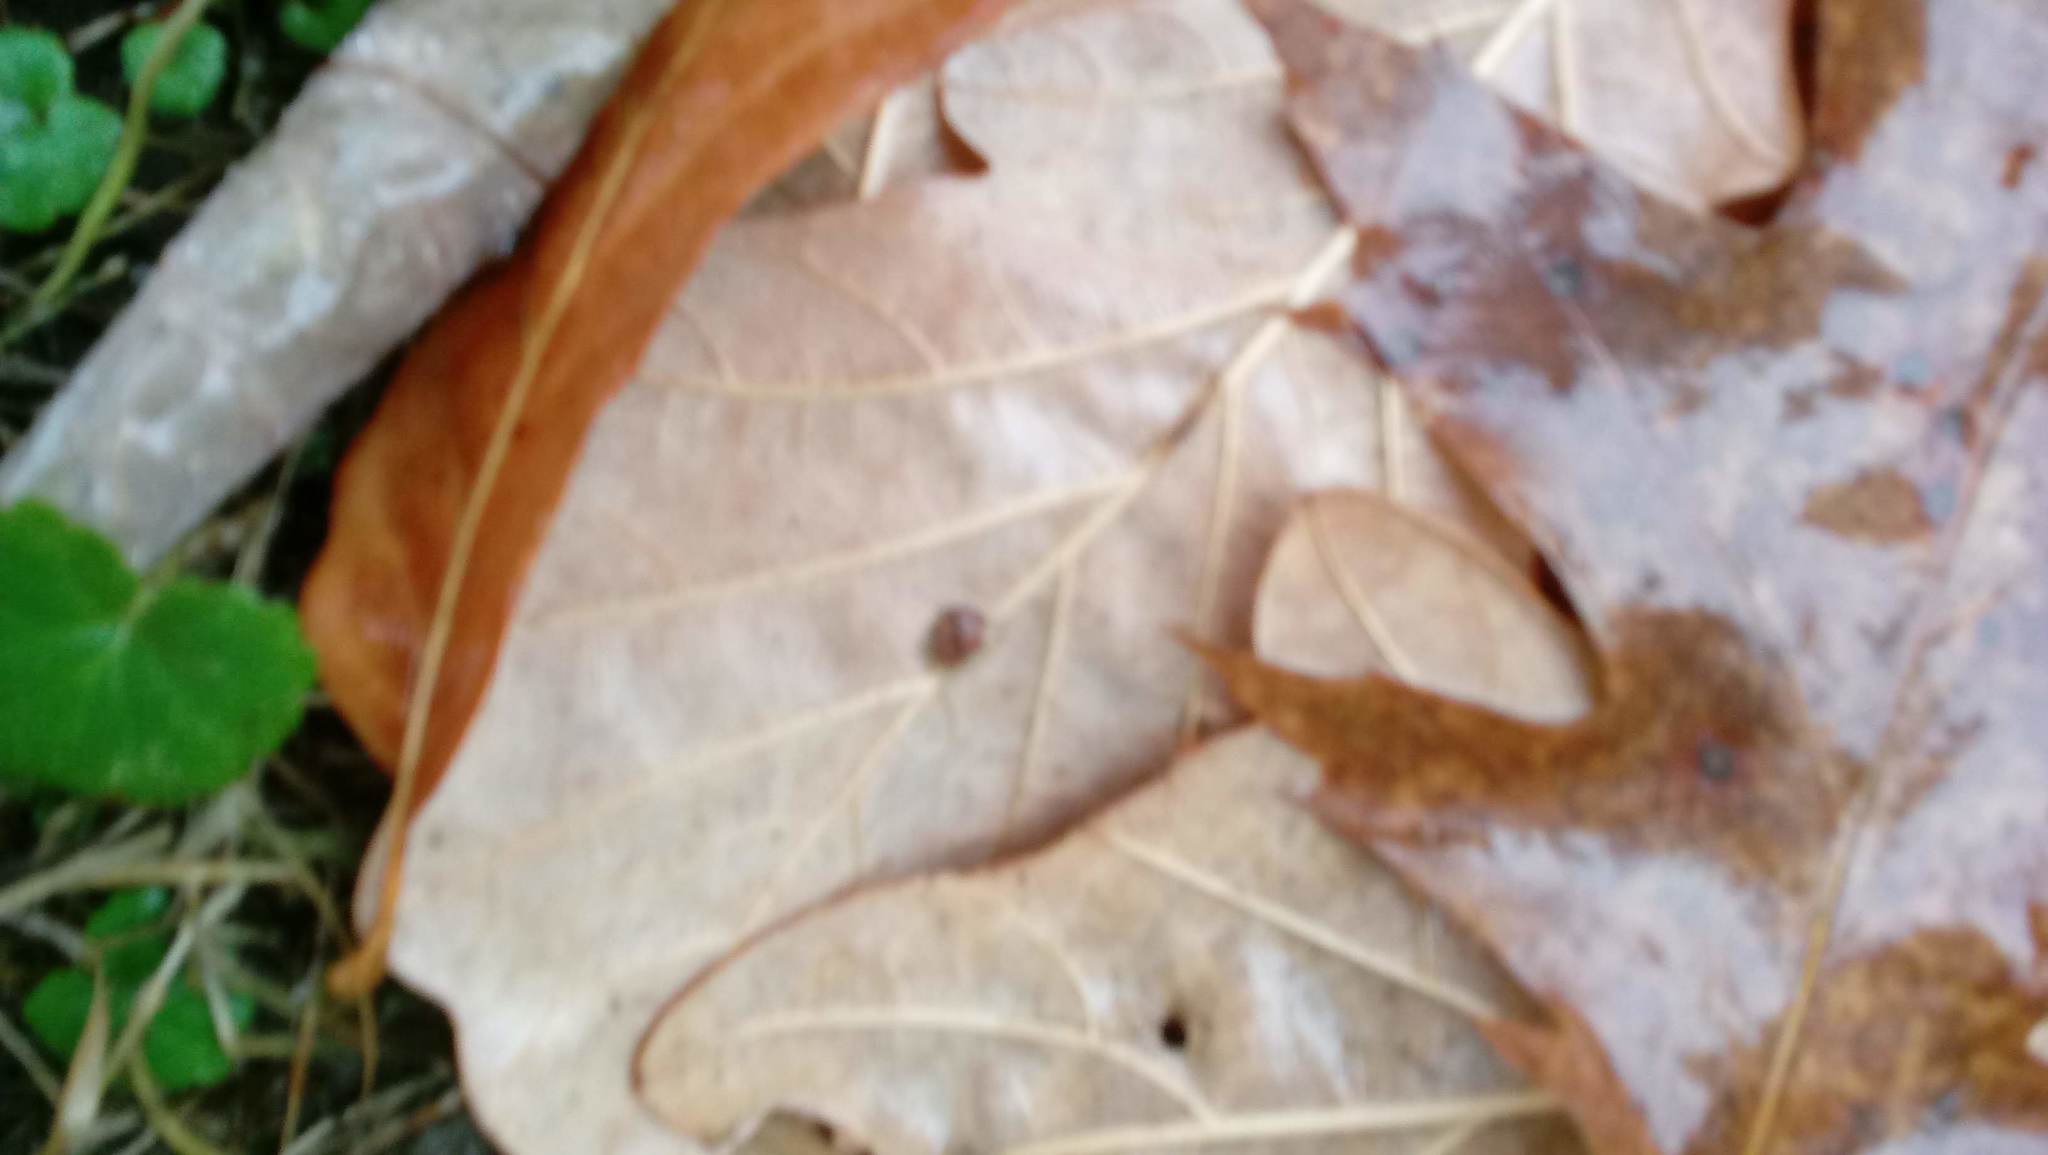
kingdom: Animalia
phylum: Arthropoda
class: Insecta
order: Hymenoptera
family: Cynipidae
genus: Andricus
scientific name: Andricus Druon ignotum
